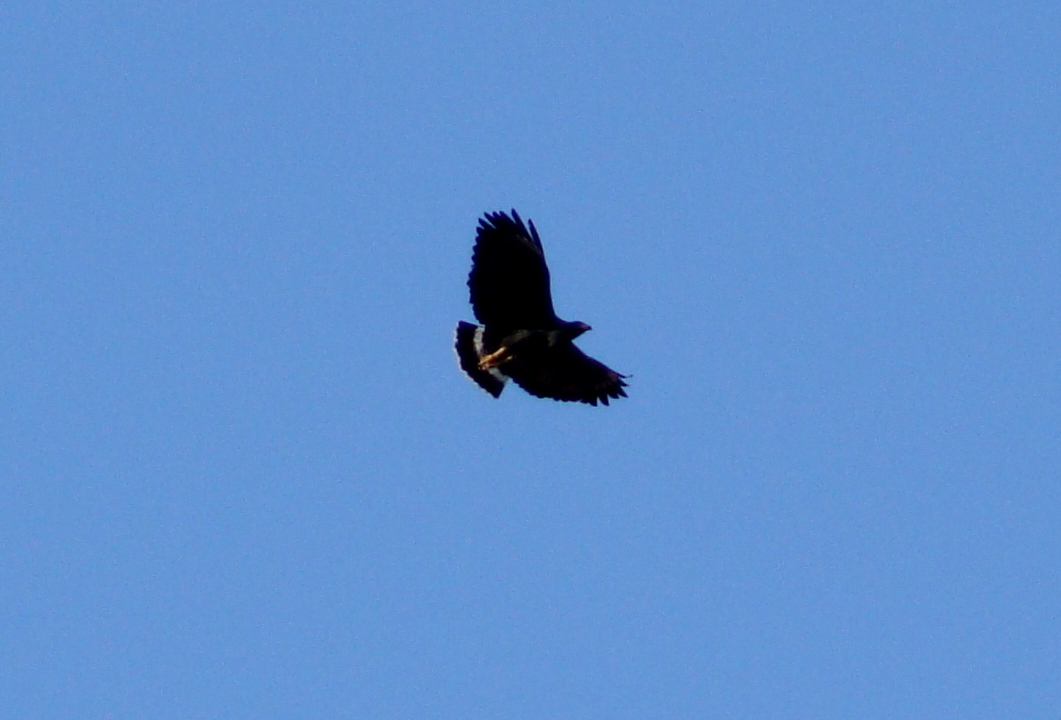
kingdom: Animalia
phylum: Chordata
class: Aves
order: Accipitriformes
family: Accipitridae
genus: Buteogallus
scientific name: Buteogallus anthracinus
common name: Common black hawk
